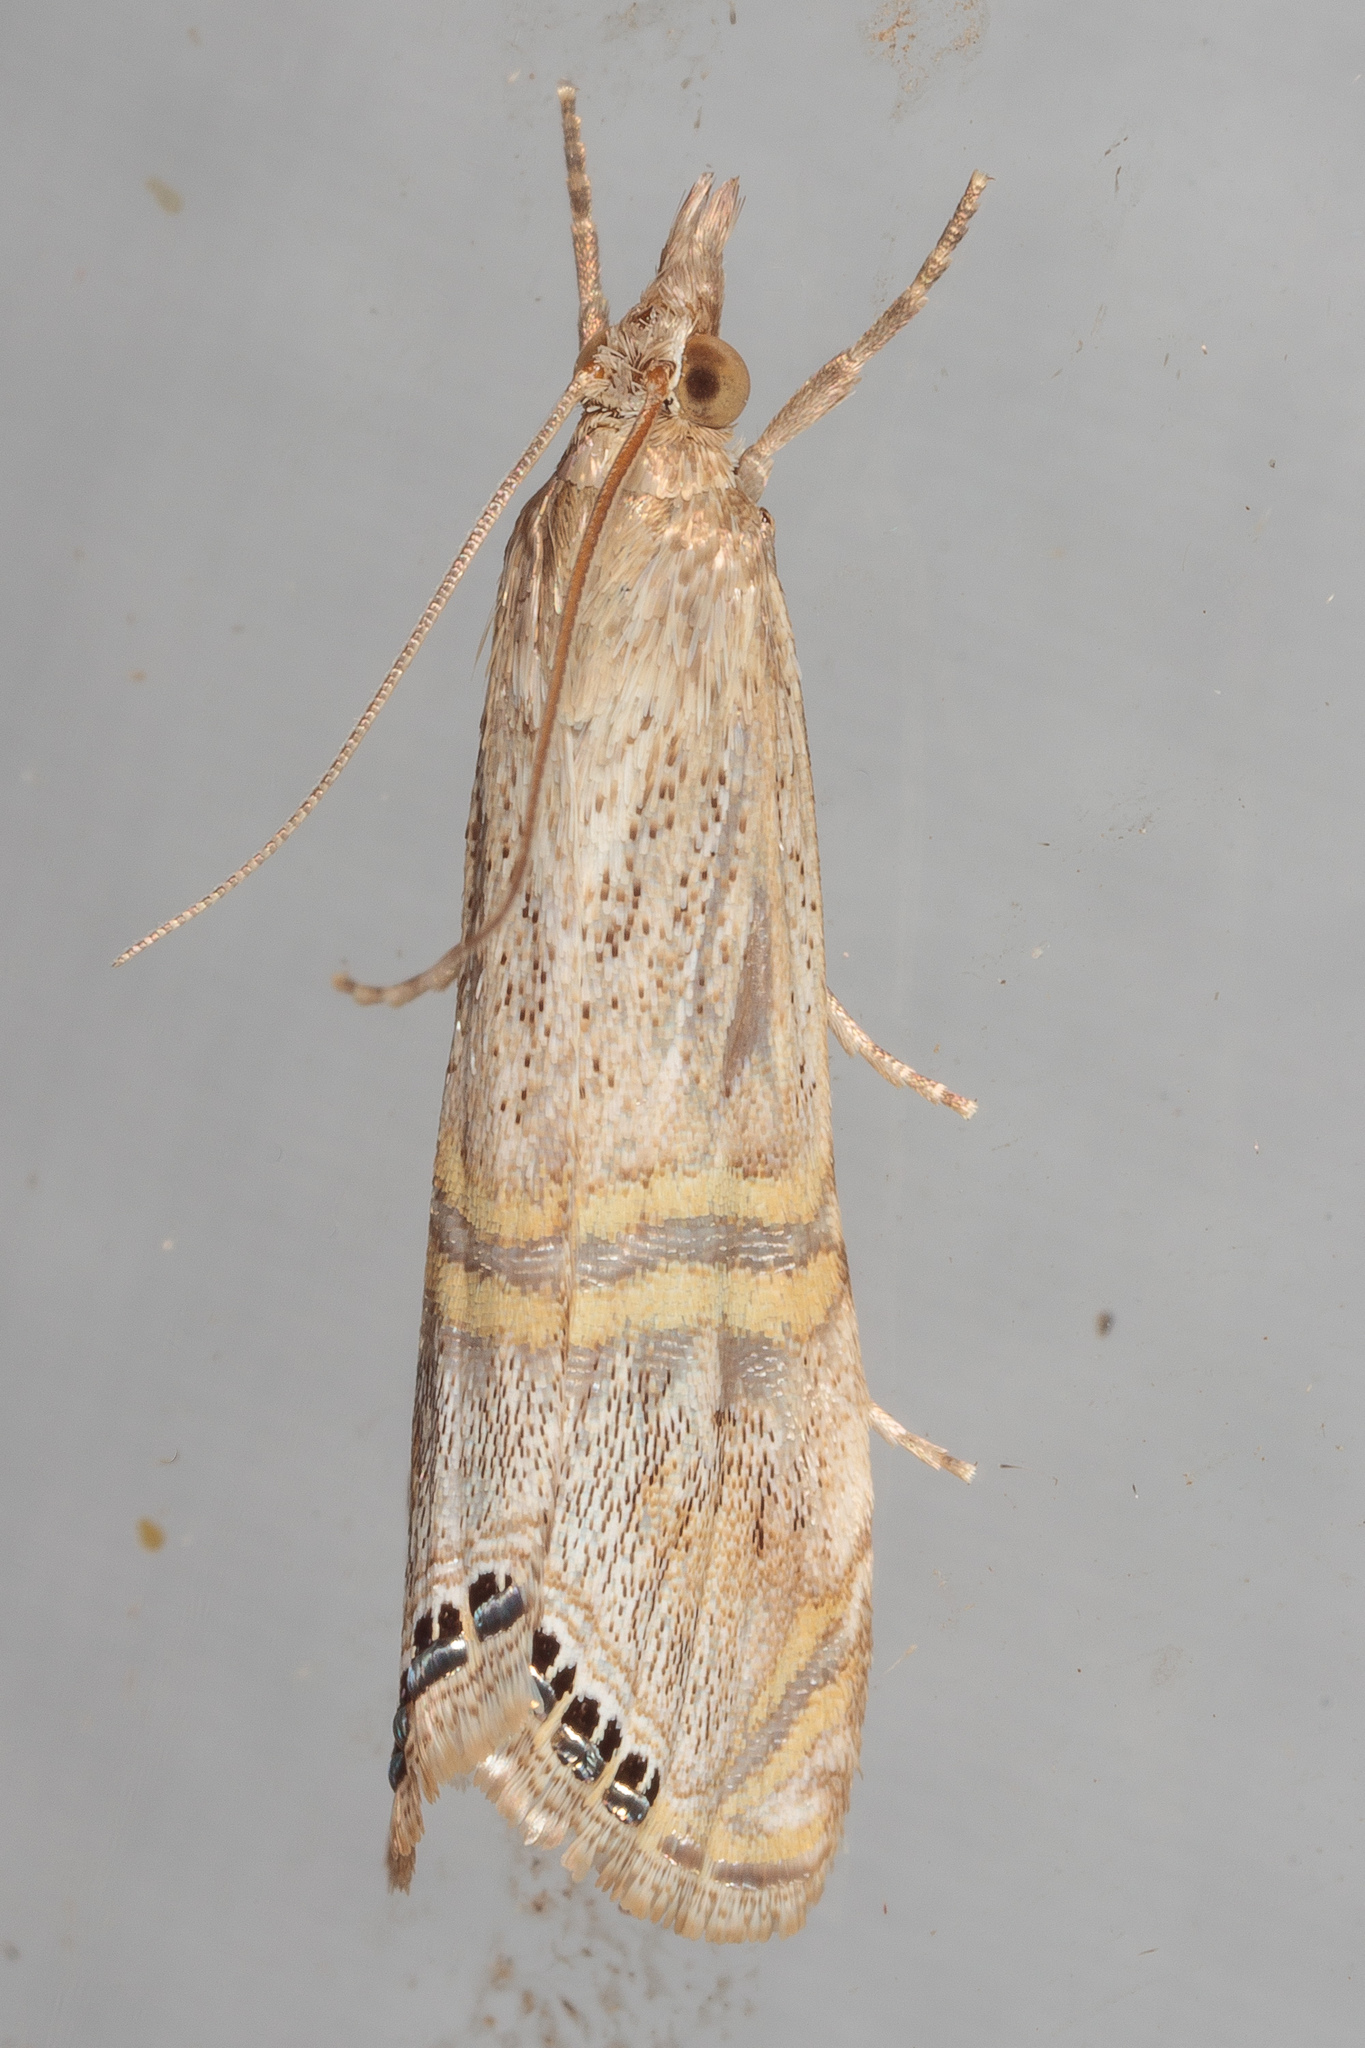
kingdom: Animalia
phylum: Arthropoda
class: Insecta
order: Lepidoptera
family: Crambidae
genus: Euchromius
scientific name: Euchromius ocellea
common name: Necklace veneer moth
